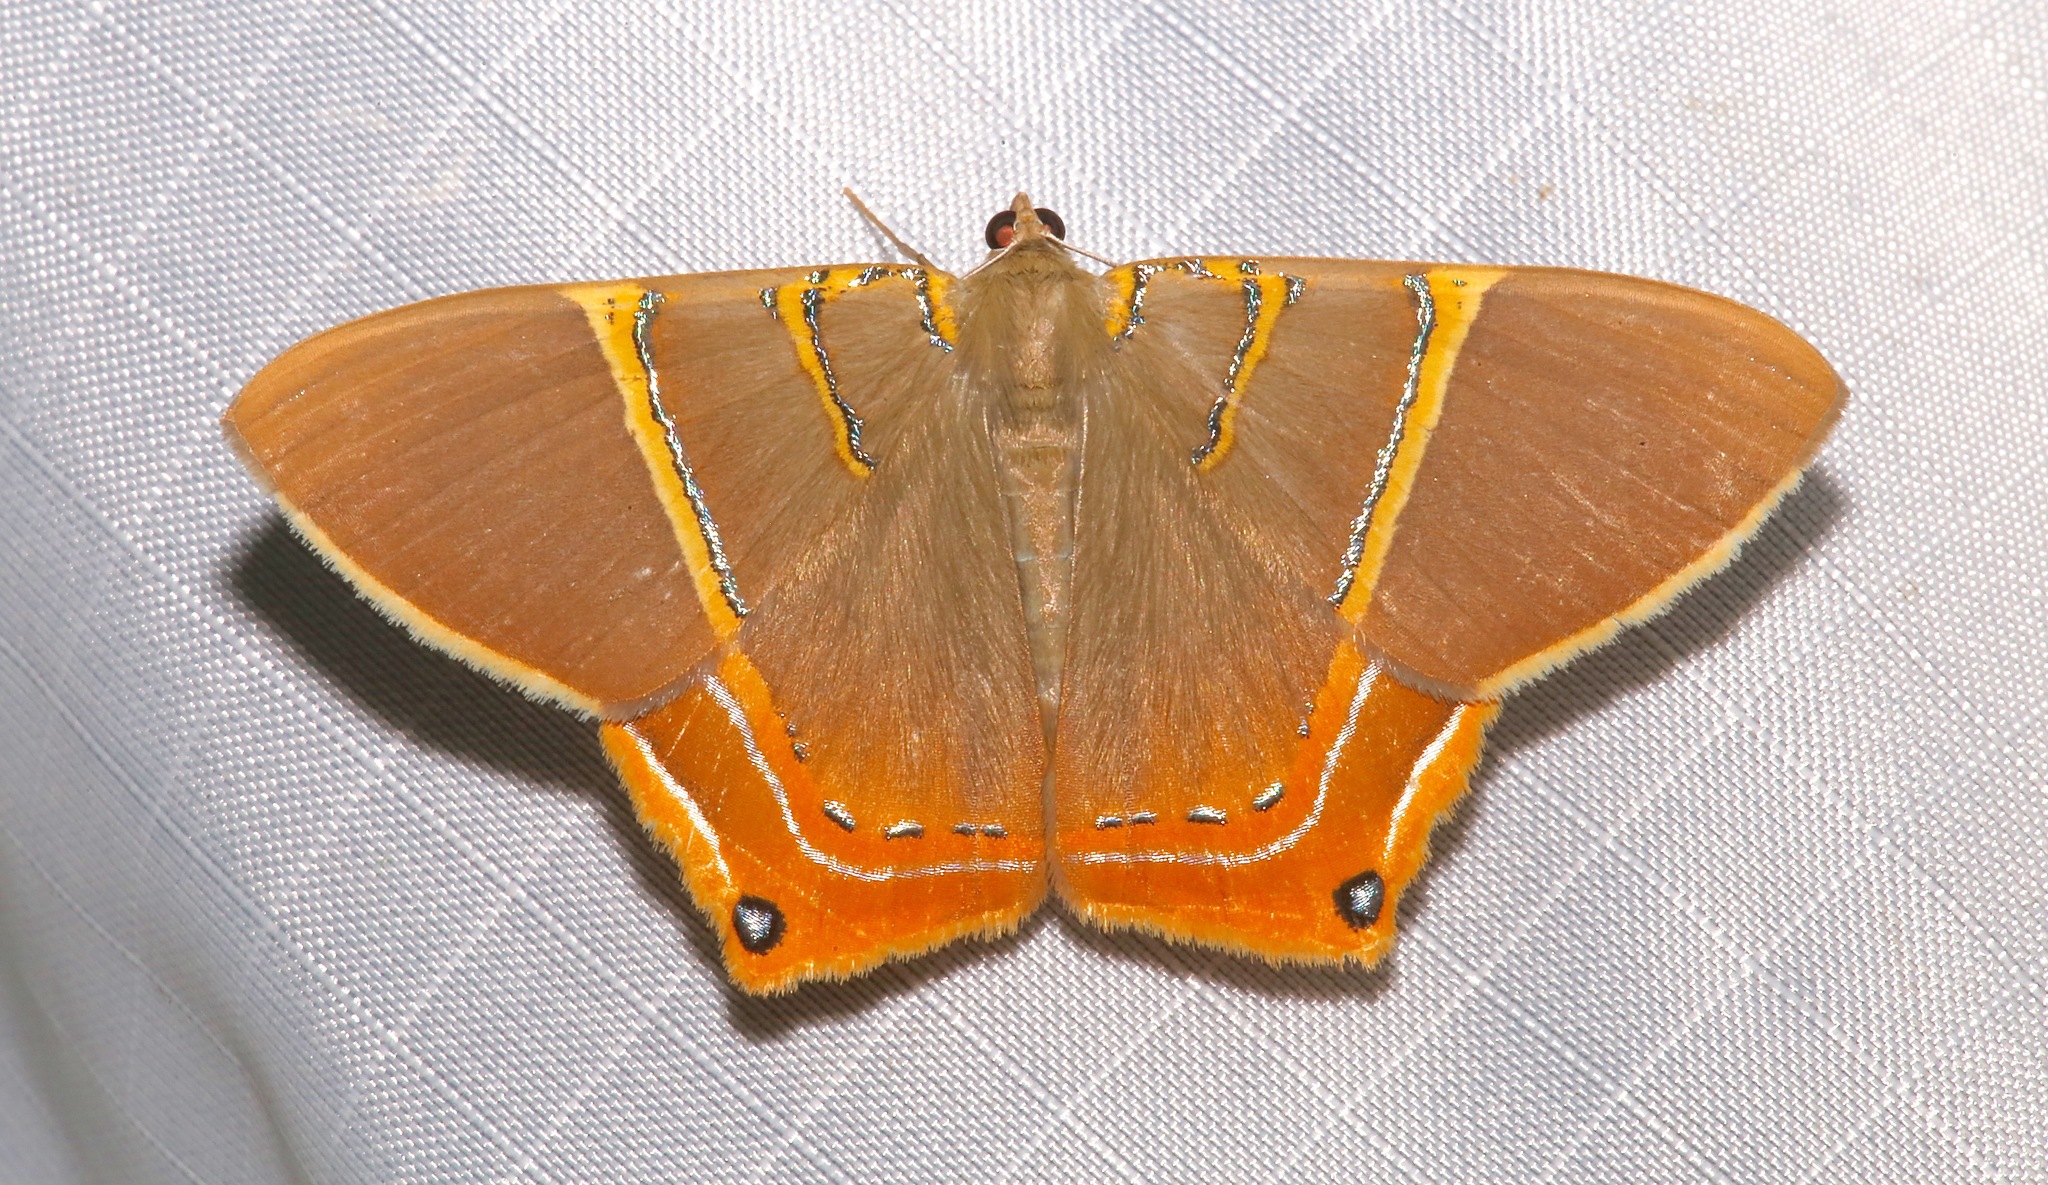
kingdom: Animalia
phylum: Arthropoda
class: Insecta
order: Lepidoptera
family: Geometridae
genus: Phrygionis
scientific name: Phrygionis polita
